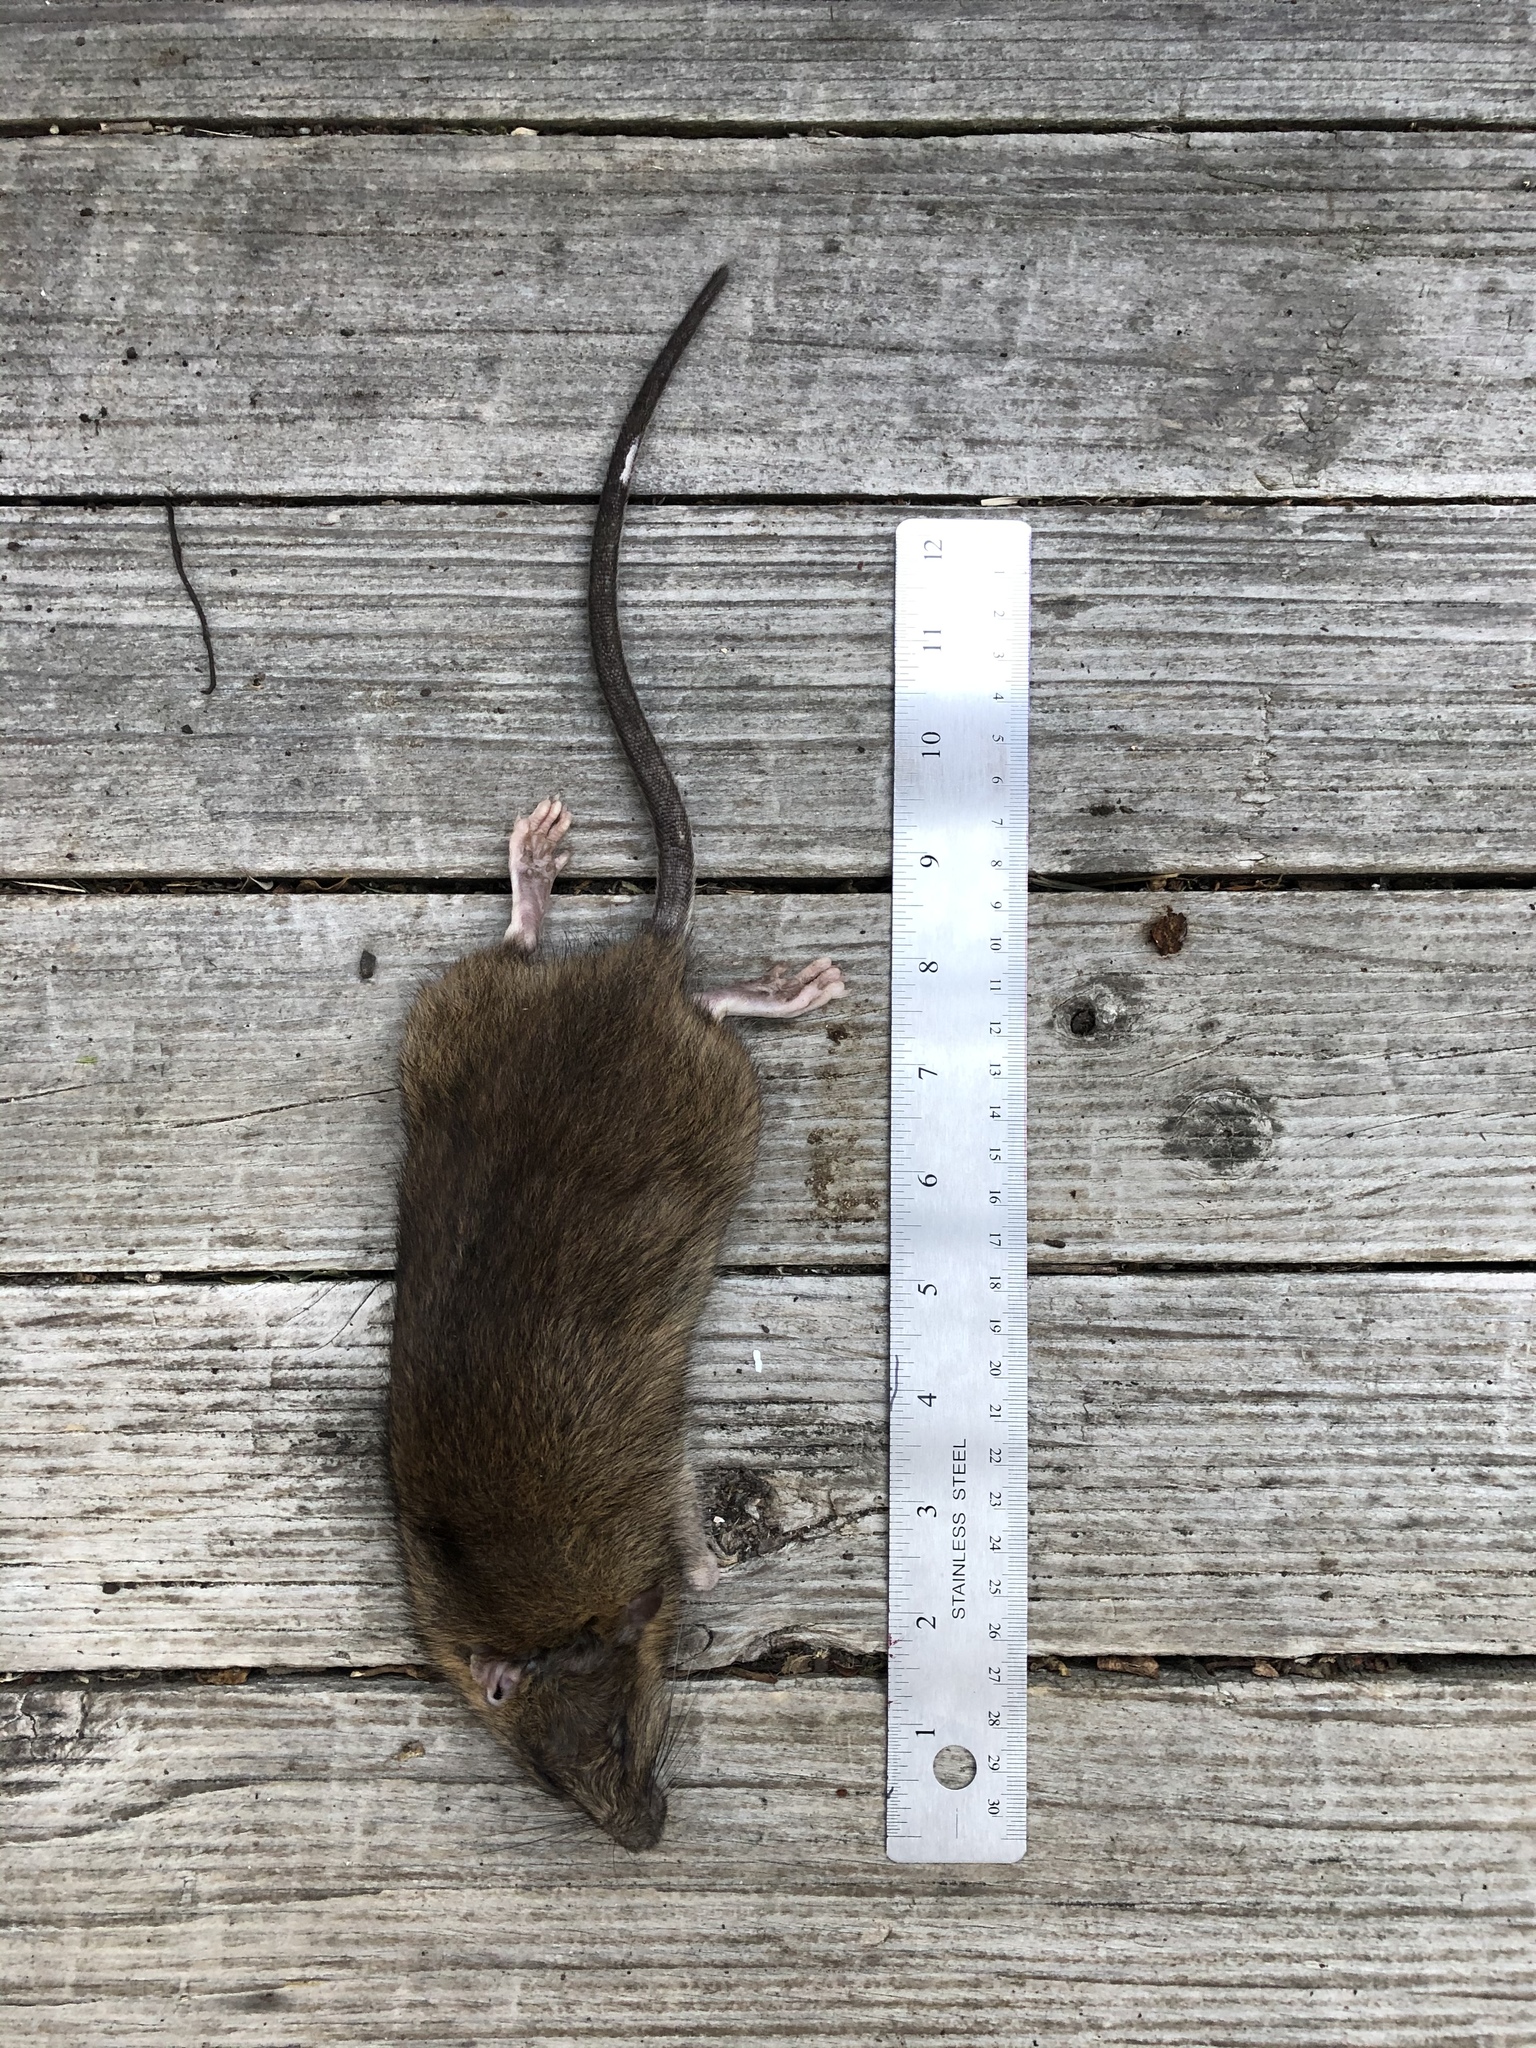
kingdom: Animalia
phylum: Chordata
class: Mammalia
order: Rodentia
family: Muridae
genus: Rattus
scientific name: Rattus norvegicus
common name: Brown rat
